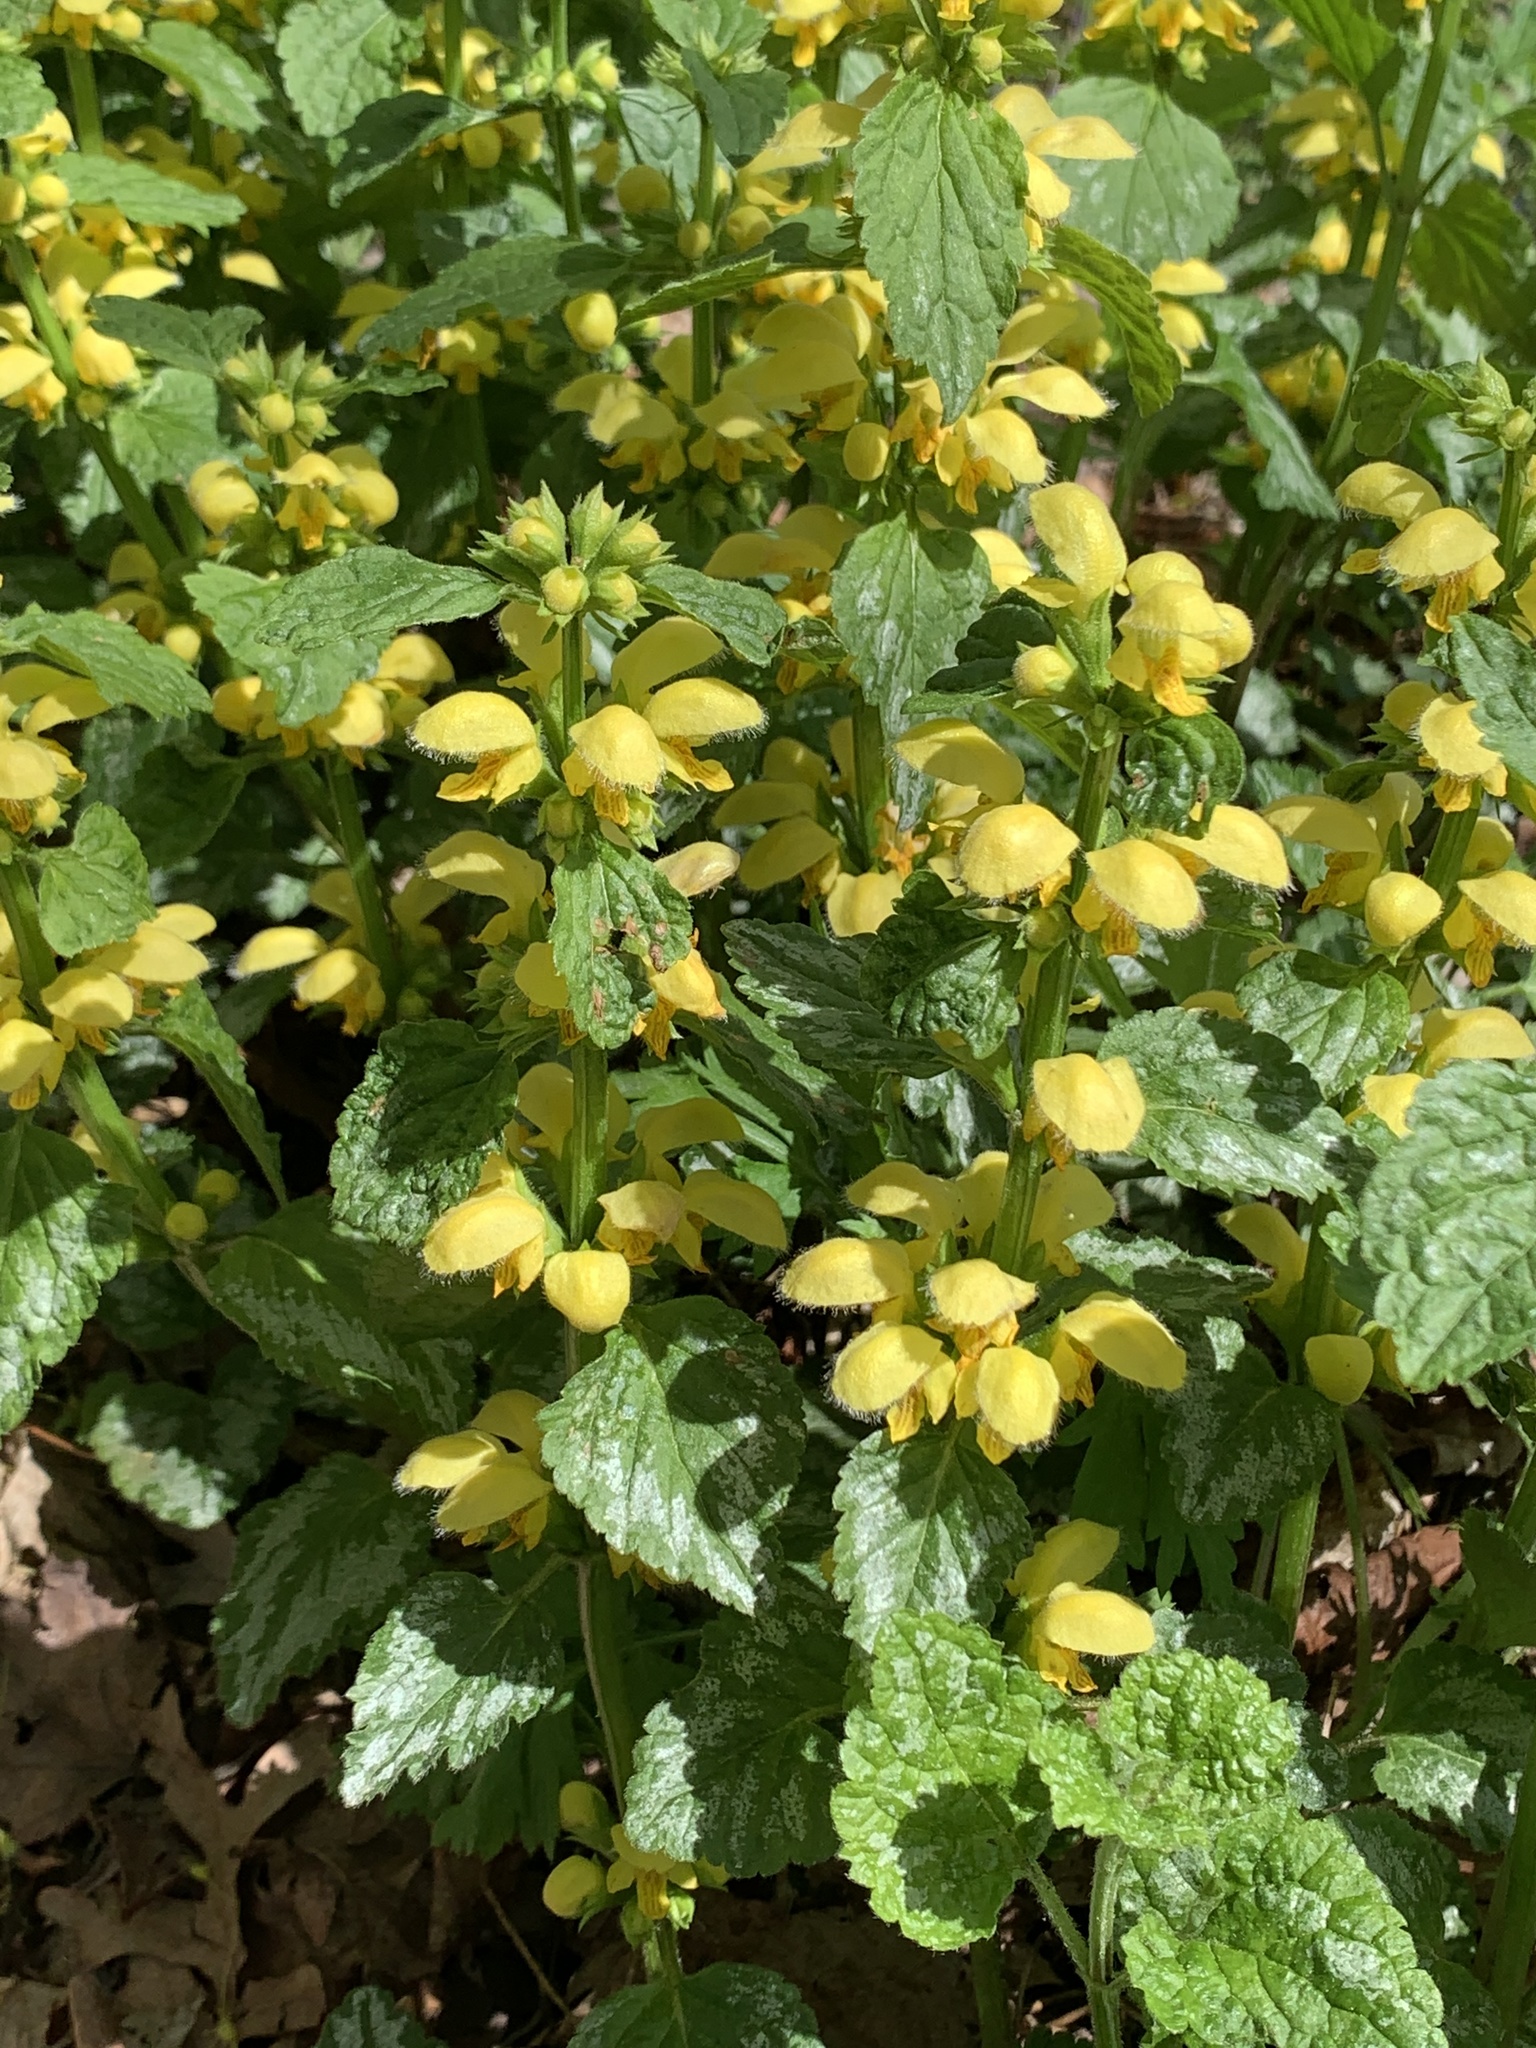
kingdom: Plantae
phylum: Tracheophyta
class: Magnoliopsida
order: Lamiales
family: Lamiaceae
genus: Lamium
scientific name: Lamium galeobdolon
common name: Yellow archangel
